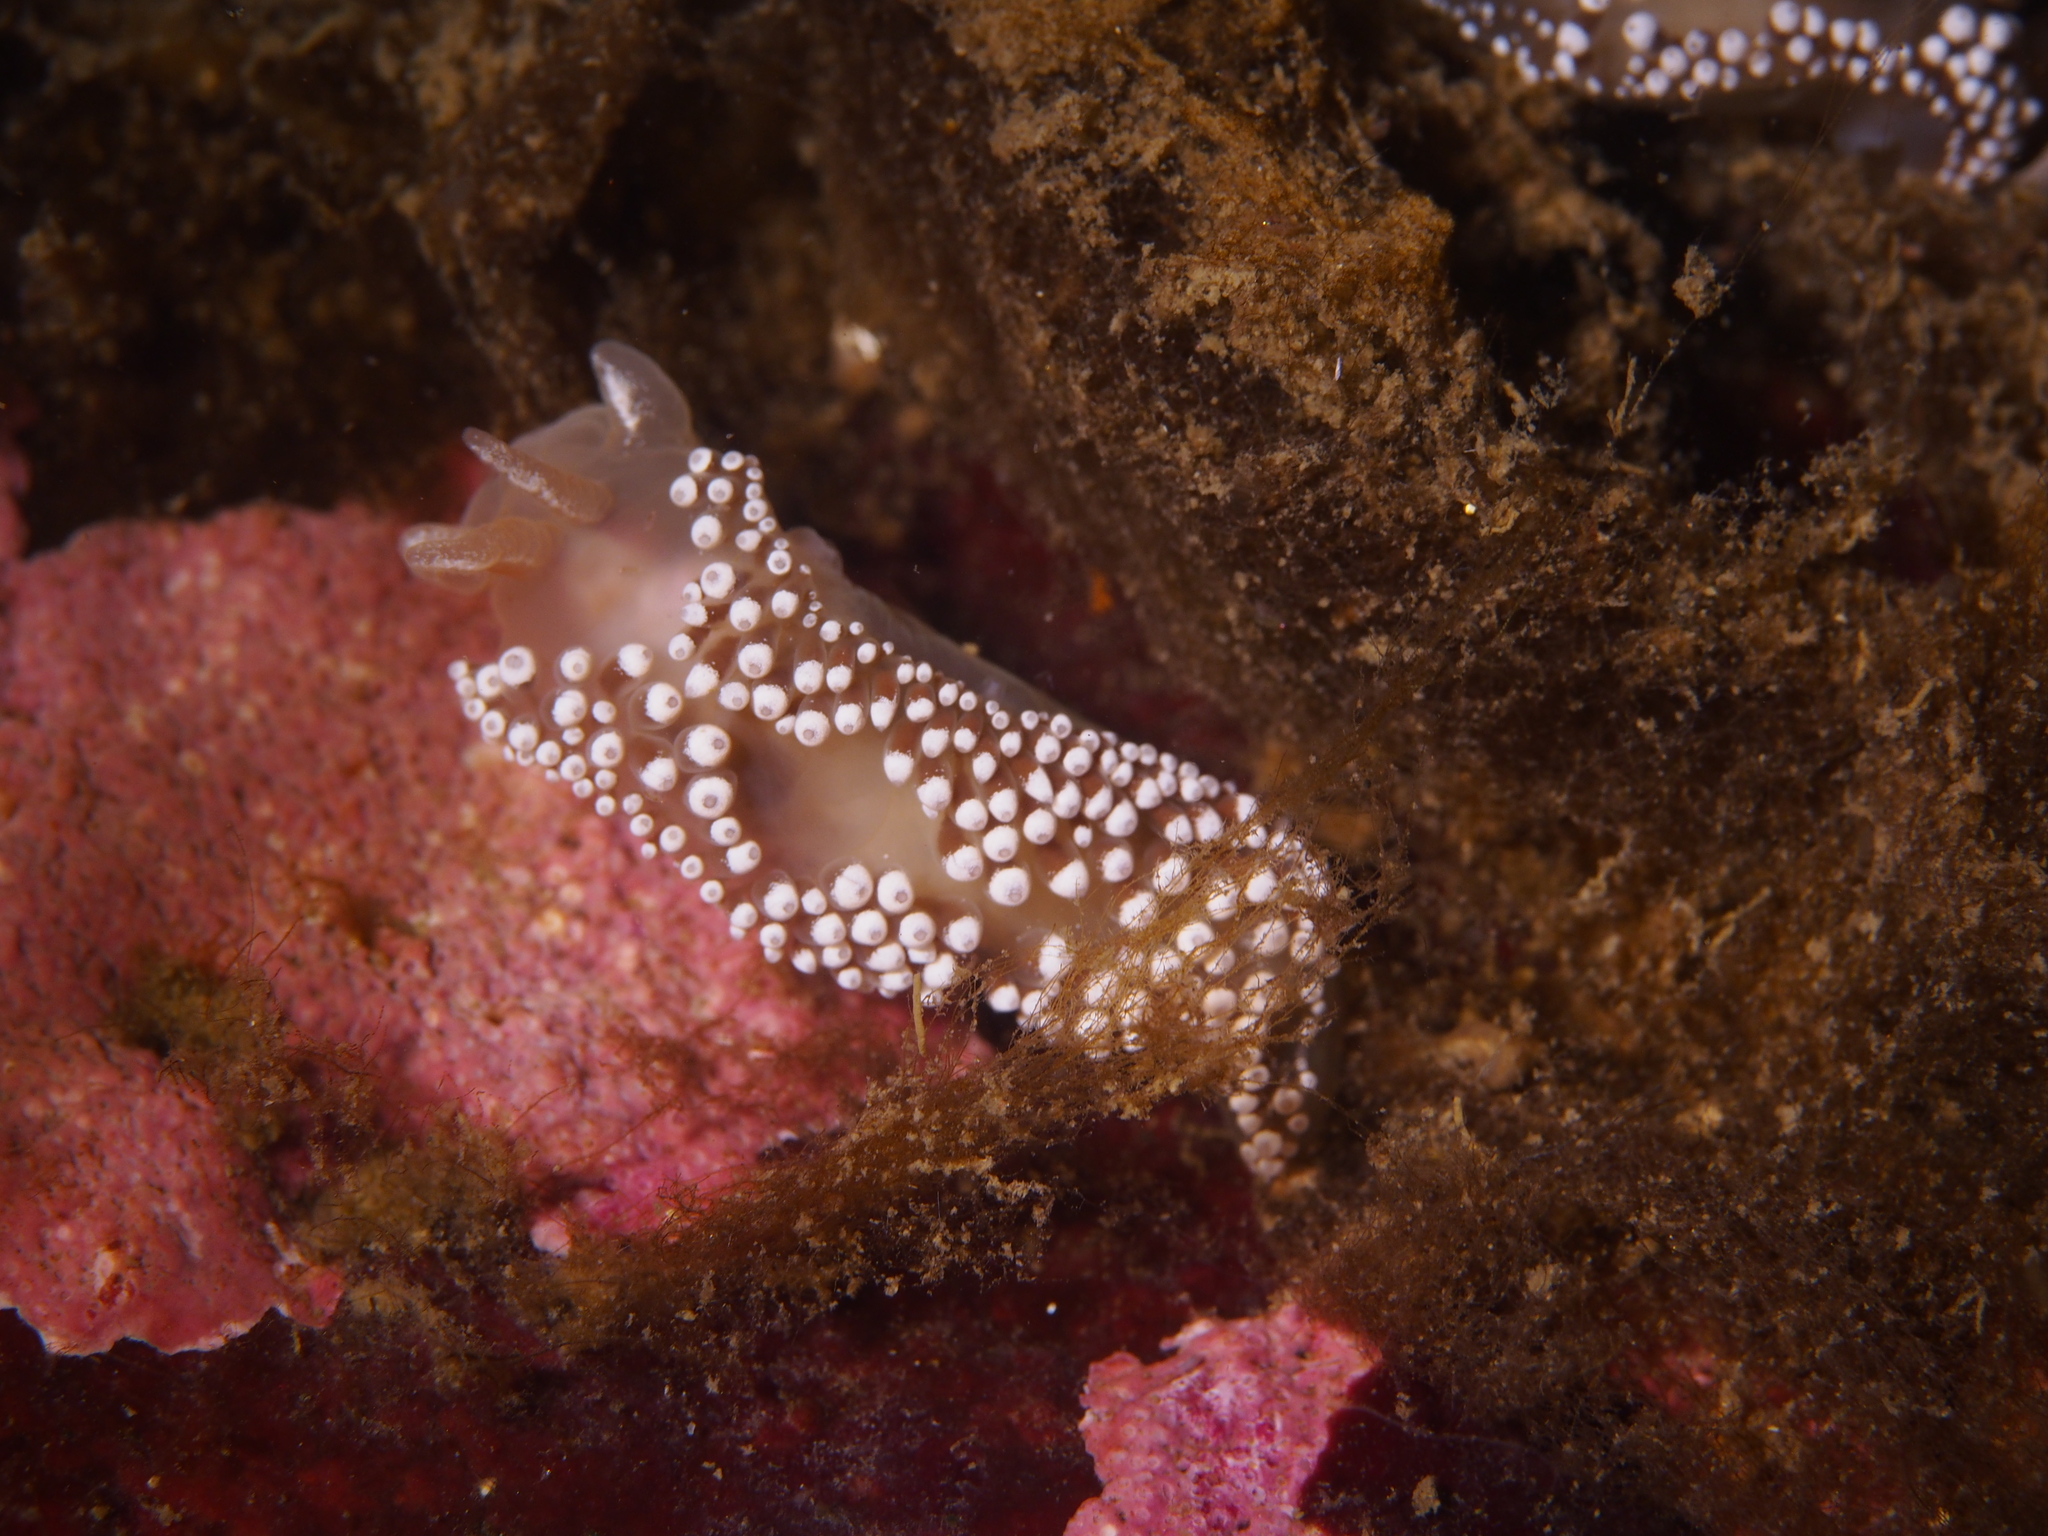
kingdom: Animalia
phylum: Mollusca
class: Gastropoda
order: Nudibranchia
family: Coryphellidae
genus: Coryphella
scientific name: Coryphella verrucosa
